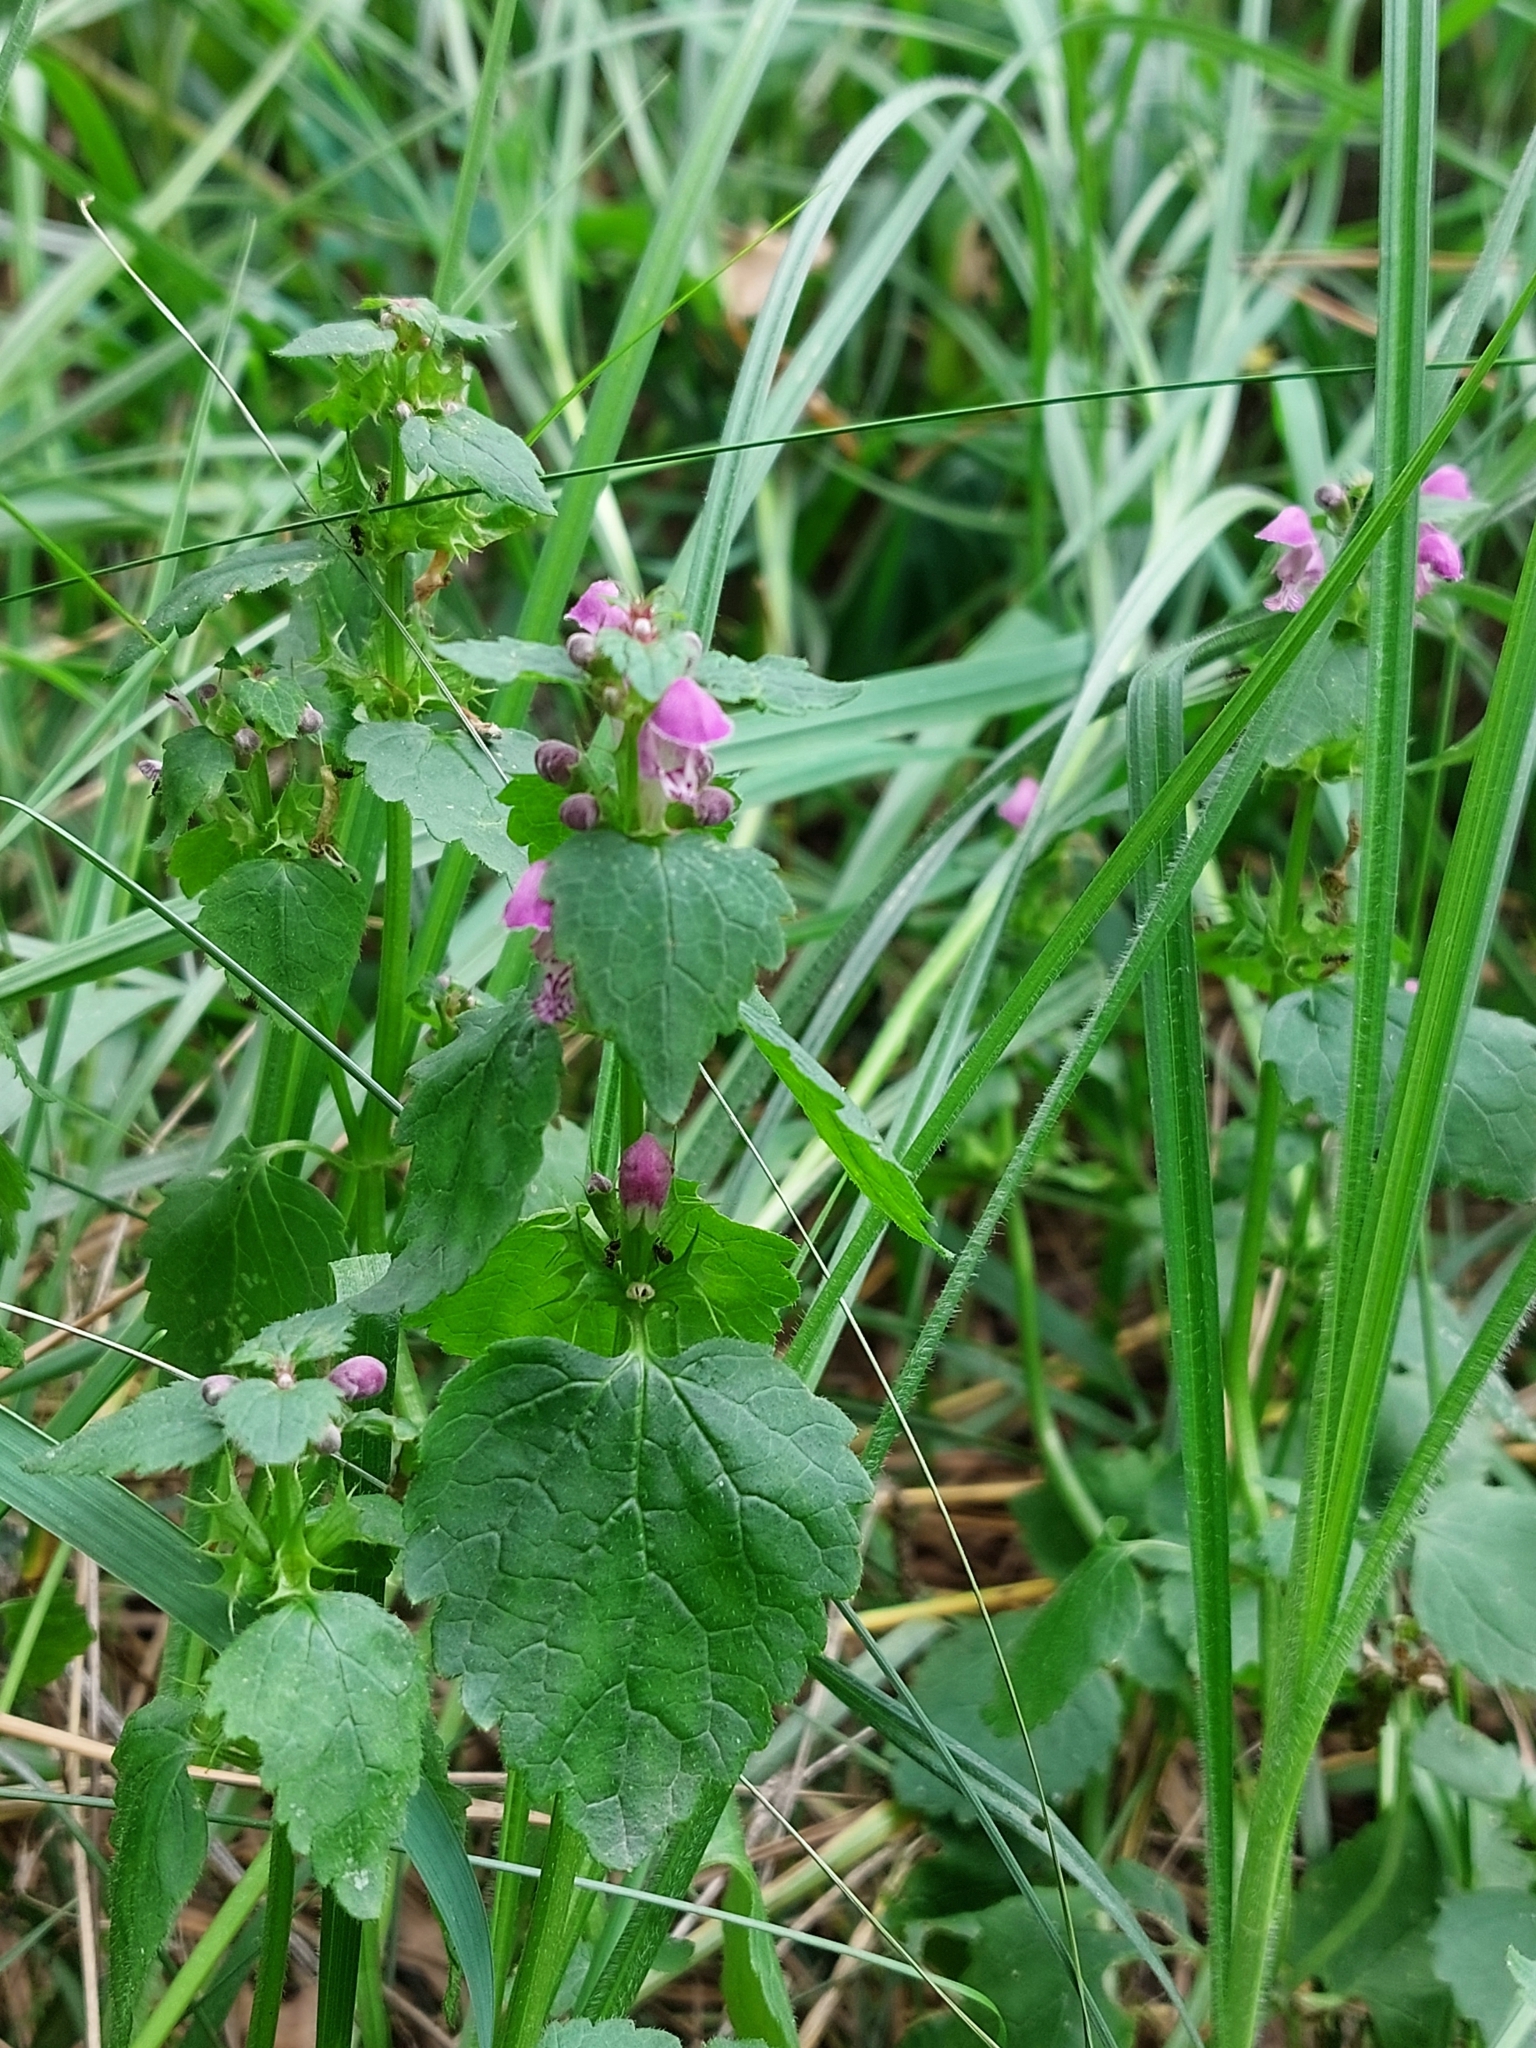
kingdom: Plantae
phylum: Tracheophyta
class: Magnoliopsida
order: Lamiales
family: Lamiaceae
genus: Lamium
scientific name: Lamium maculatum
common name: Spotted dead-nettle
